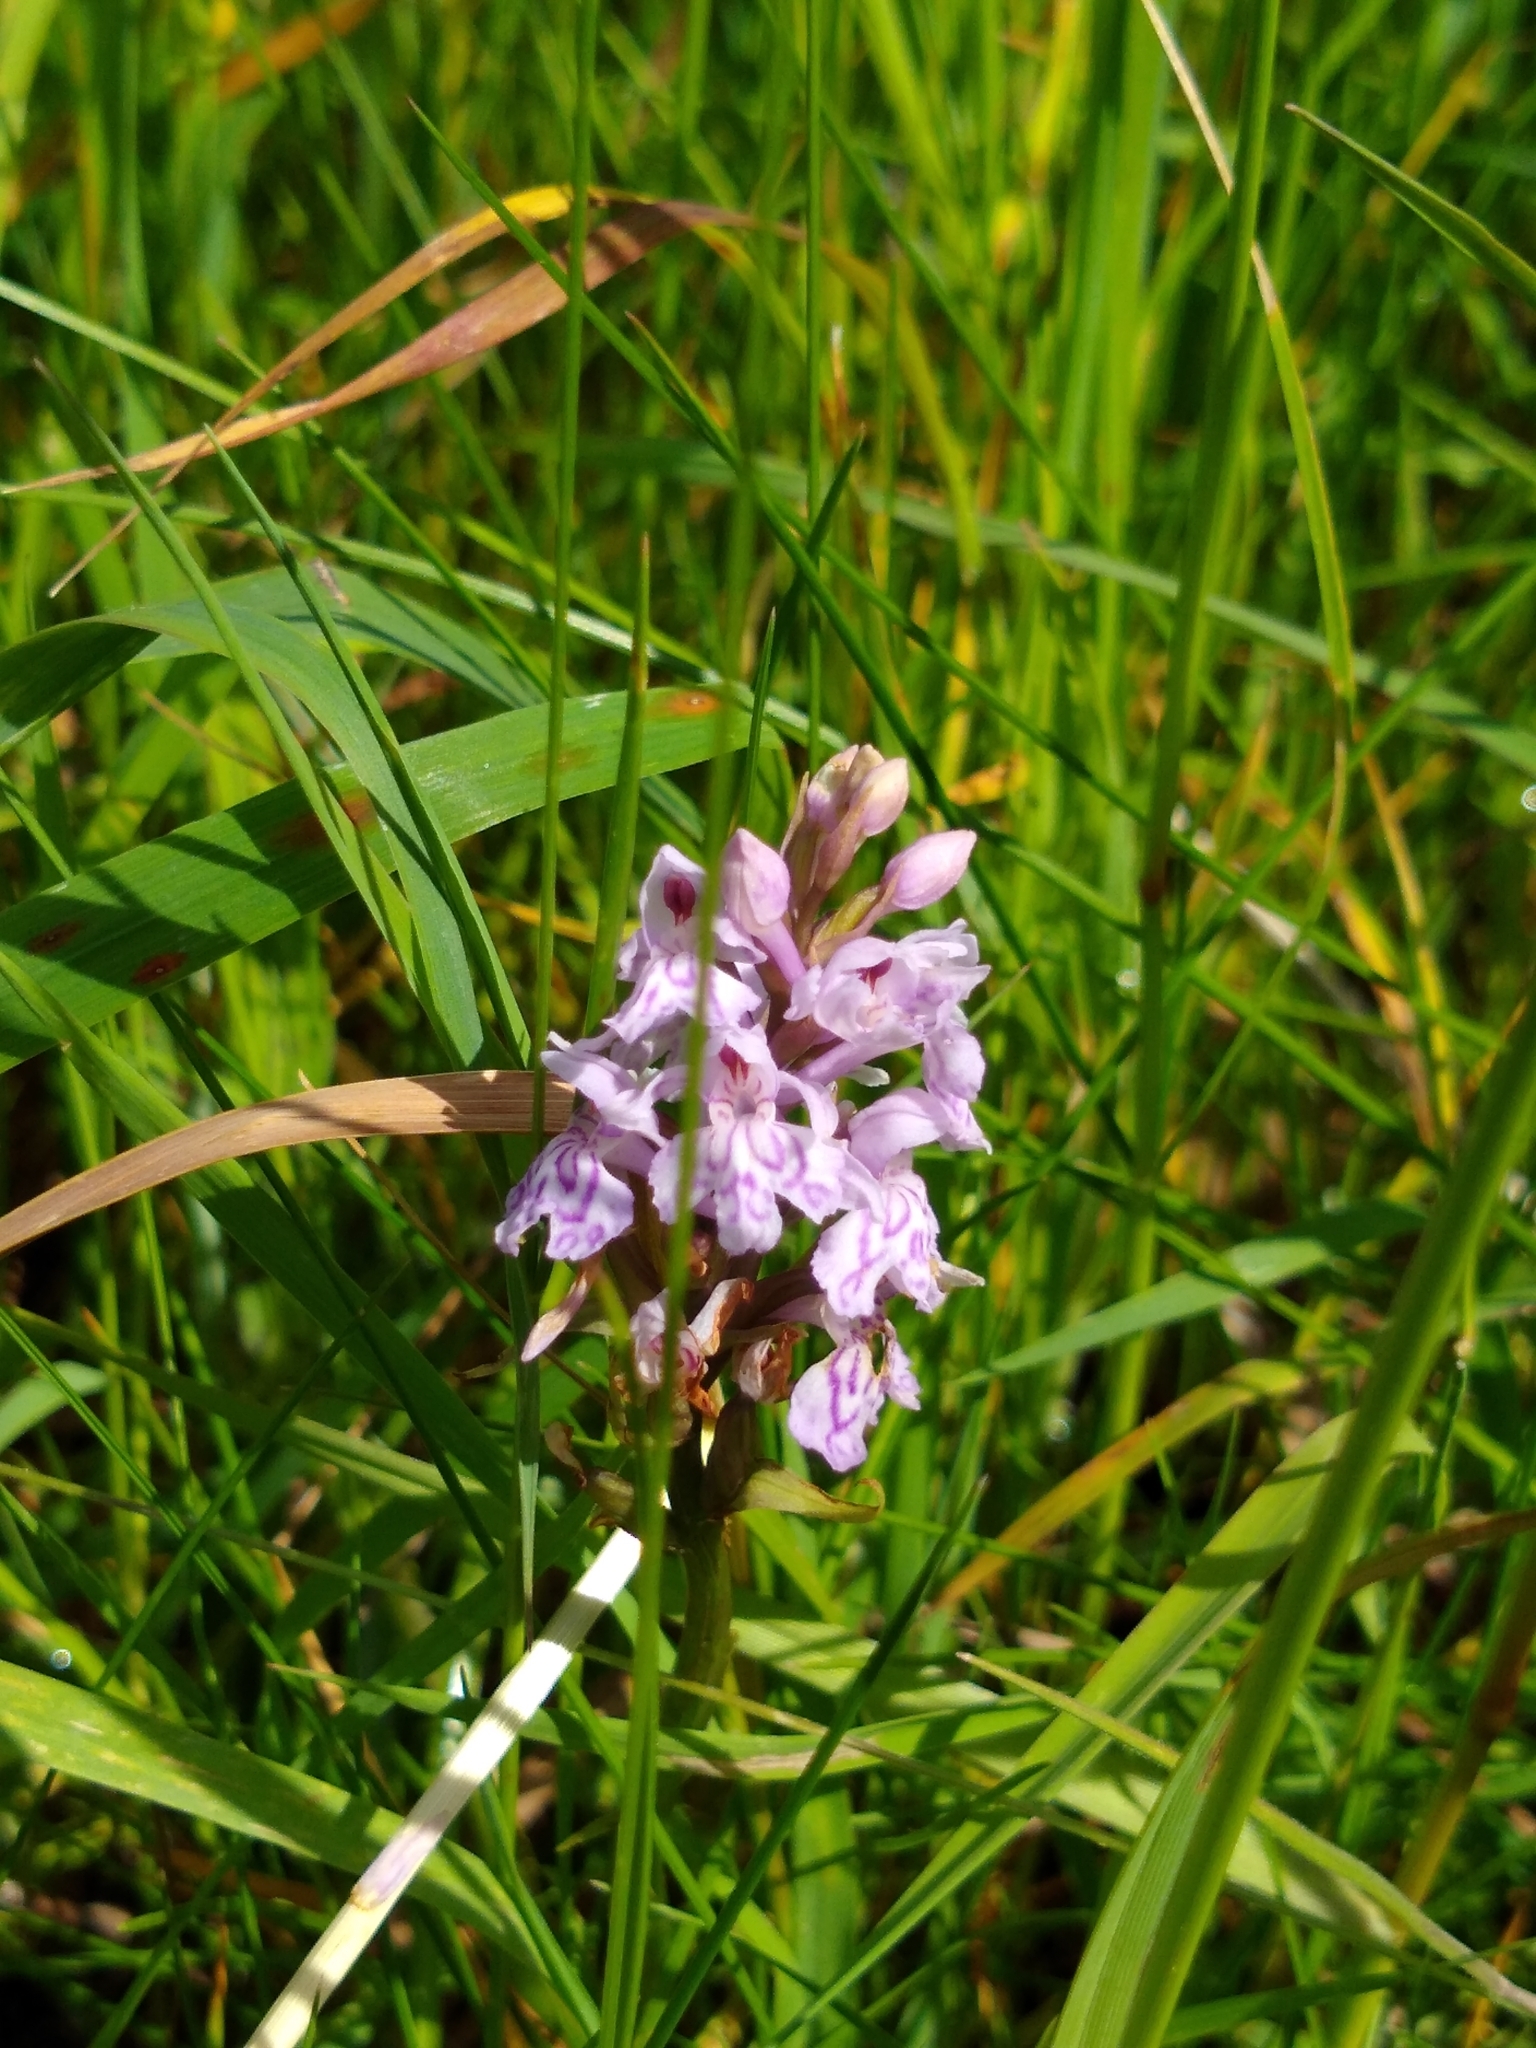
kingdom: Plantae
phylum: Tracheophyta
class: Liliopsida
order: Asparagales
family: Orchidaceae
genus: Dactylorhiza
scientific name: Dactylorhiza maculata
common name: Heath spotted-orchid
